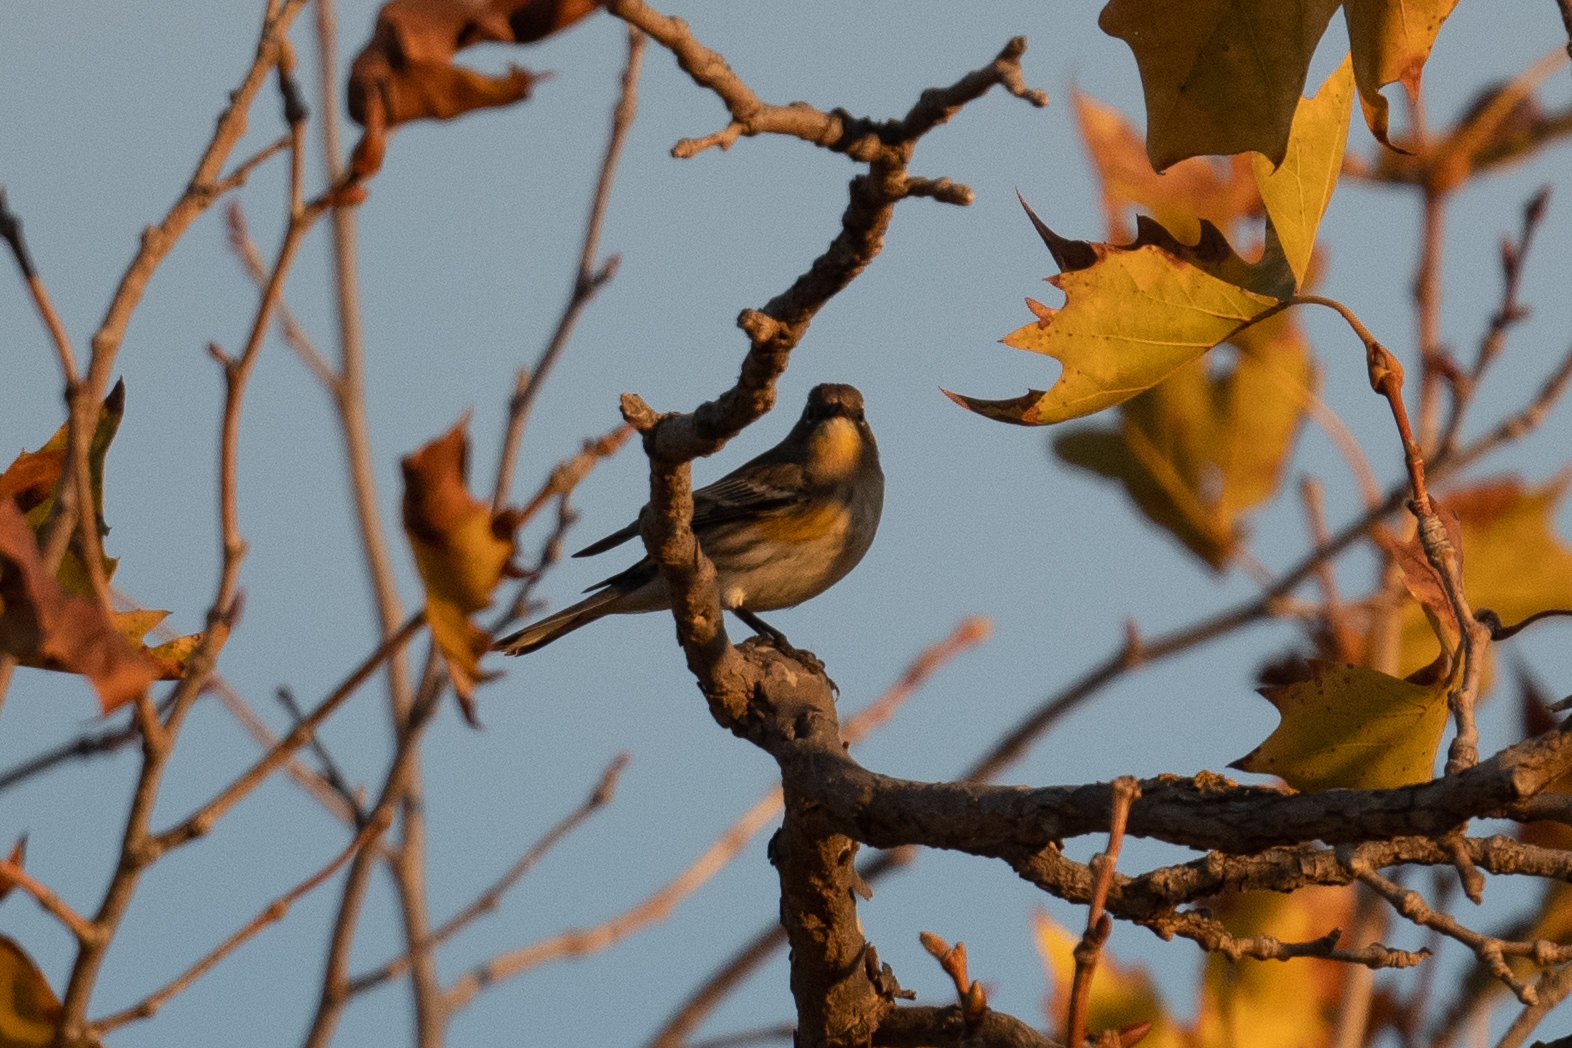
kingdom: Animalia
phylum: Chordata
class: Aves
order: Passeriformes
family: Parulidae
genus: Setophaga
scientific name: Setophaga auduboni
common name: Audubon's warbler
